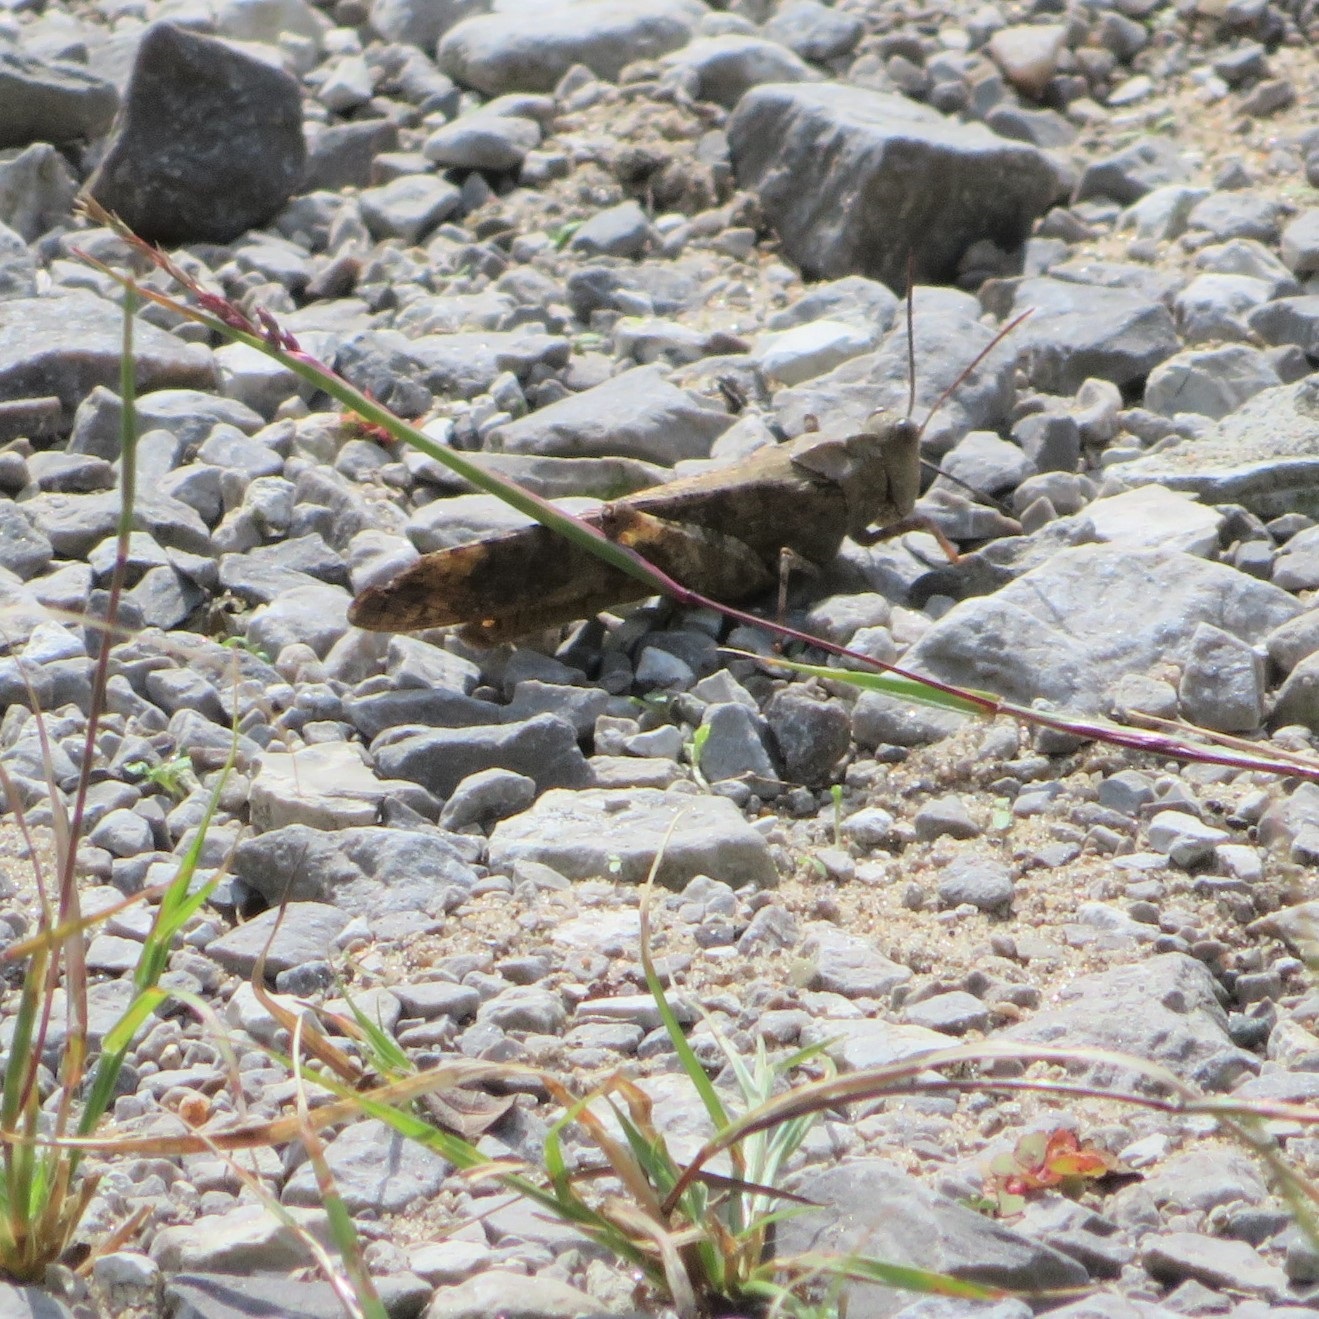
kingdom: Animalia
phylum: Arthropoda
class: Insecta
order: Orthoptera
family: Acrididae
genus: Dissosteira
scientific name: Dissosteira carolina
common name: Carolina grasshopper
